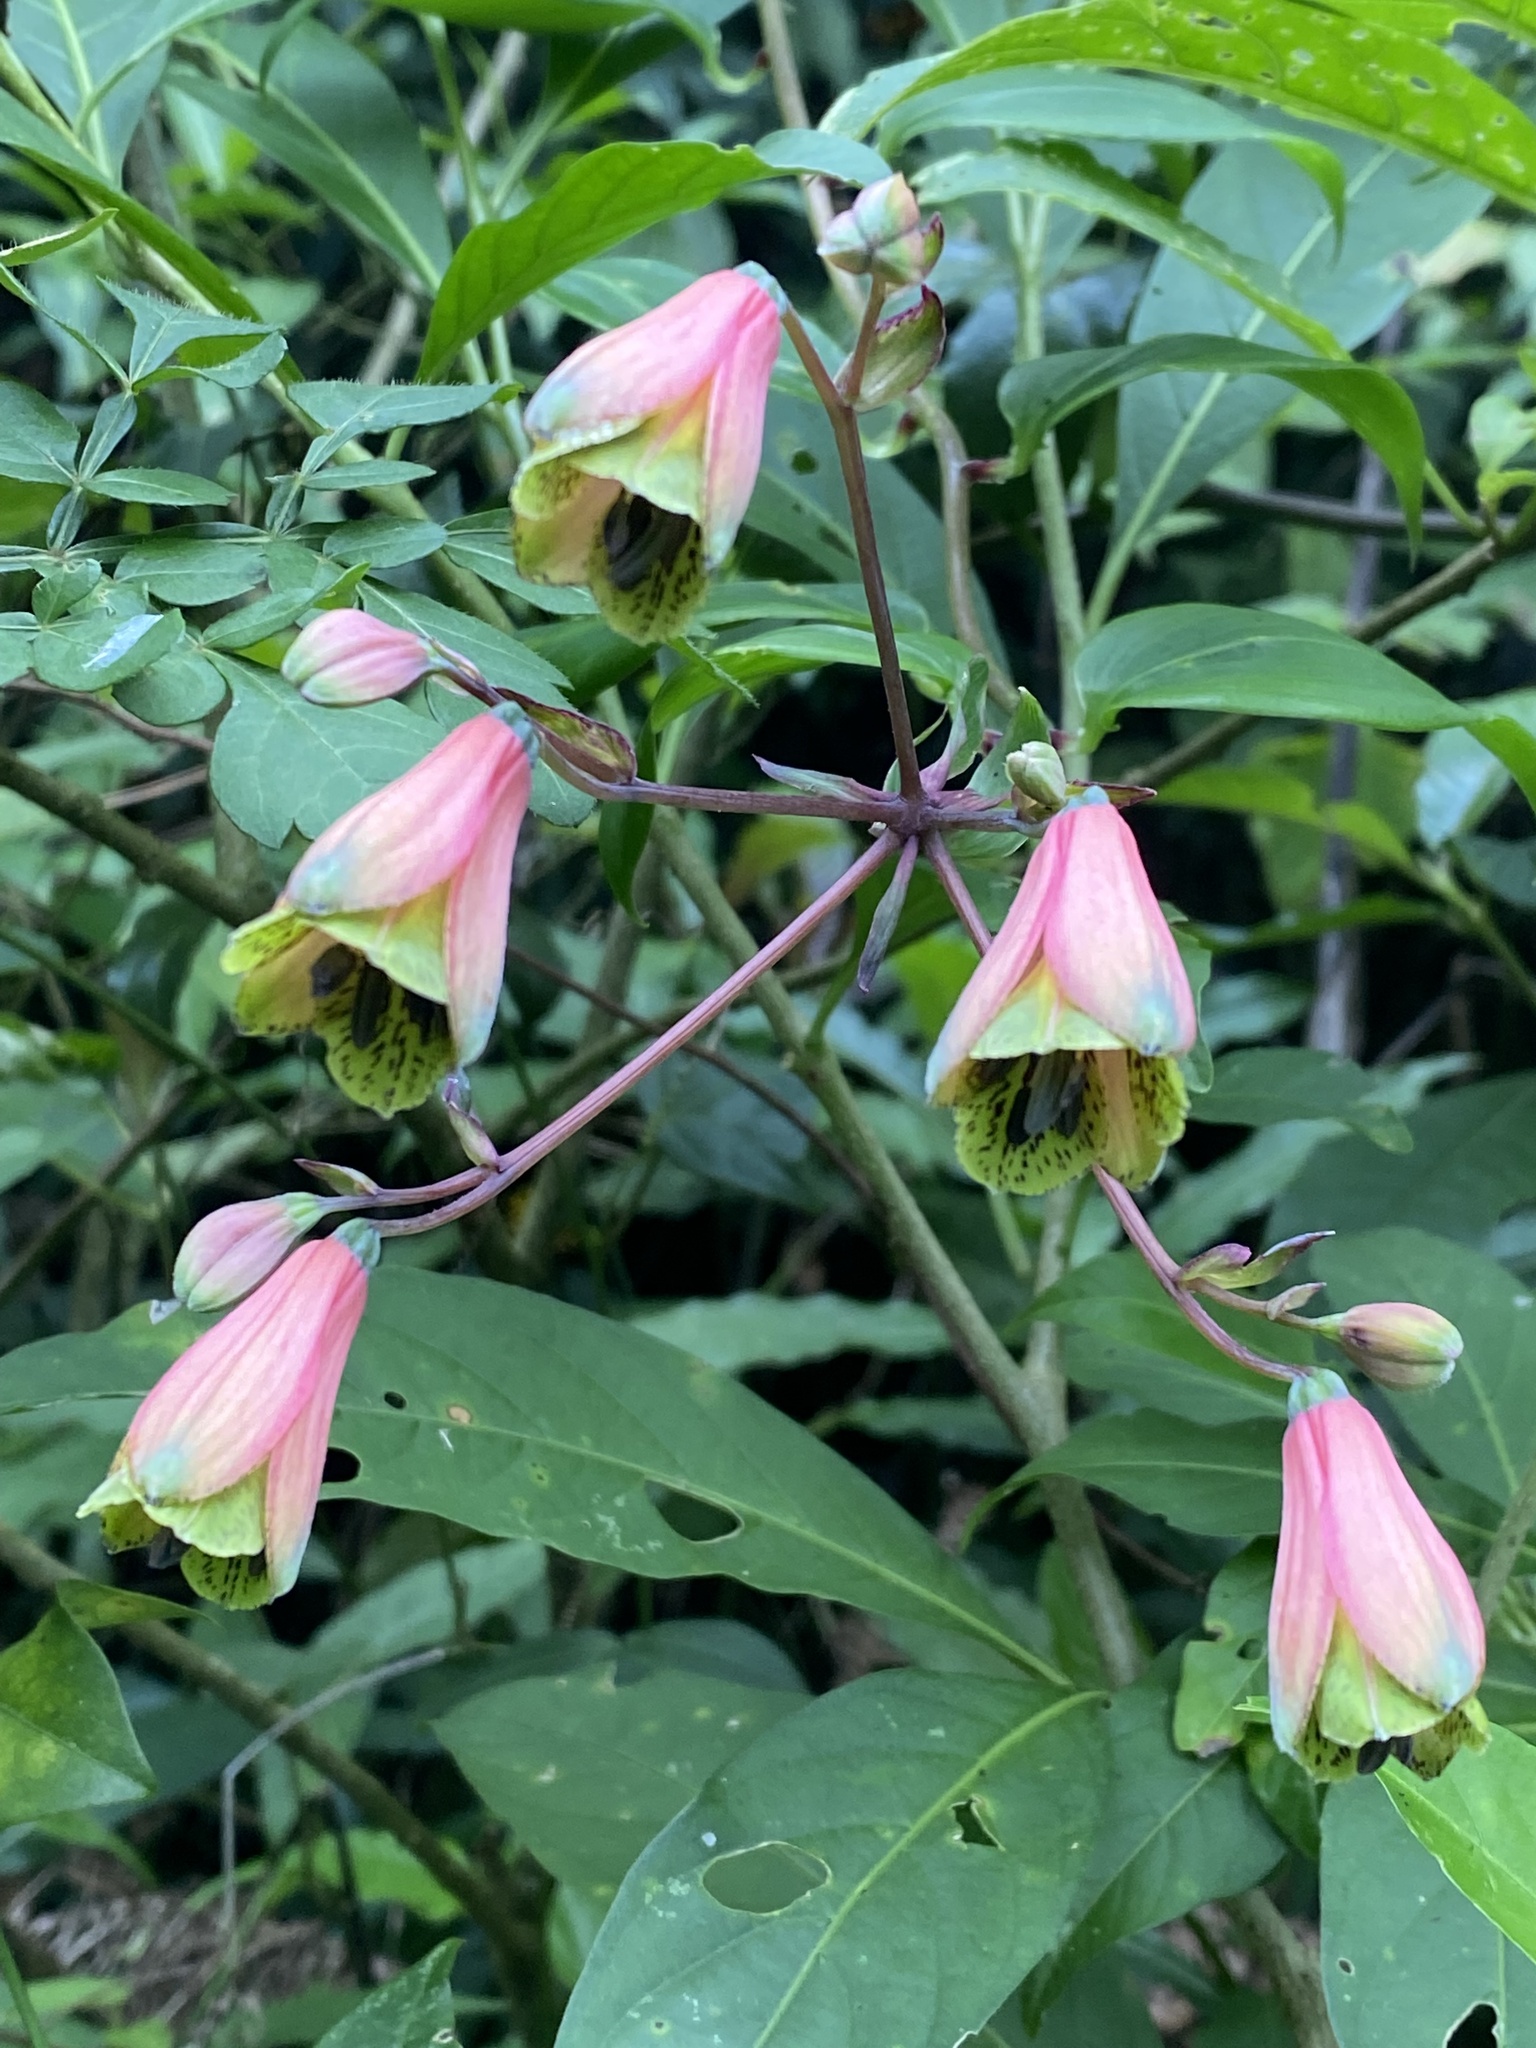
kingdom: Plantae
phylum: Tracheophyta
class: Liliopsida
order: Liliales
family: Alstroemeriaceae
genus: Bomarea
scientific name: Bomarea edulis
